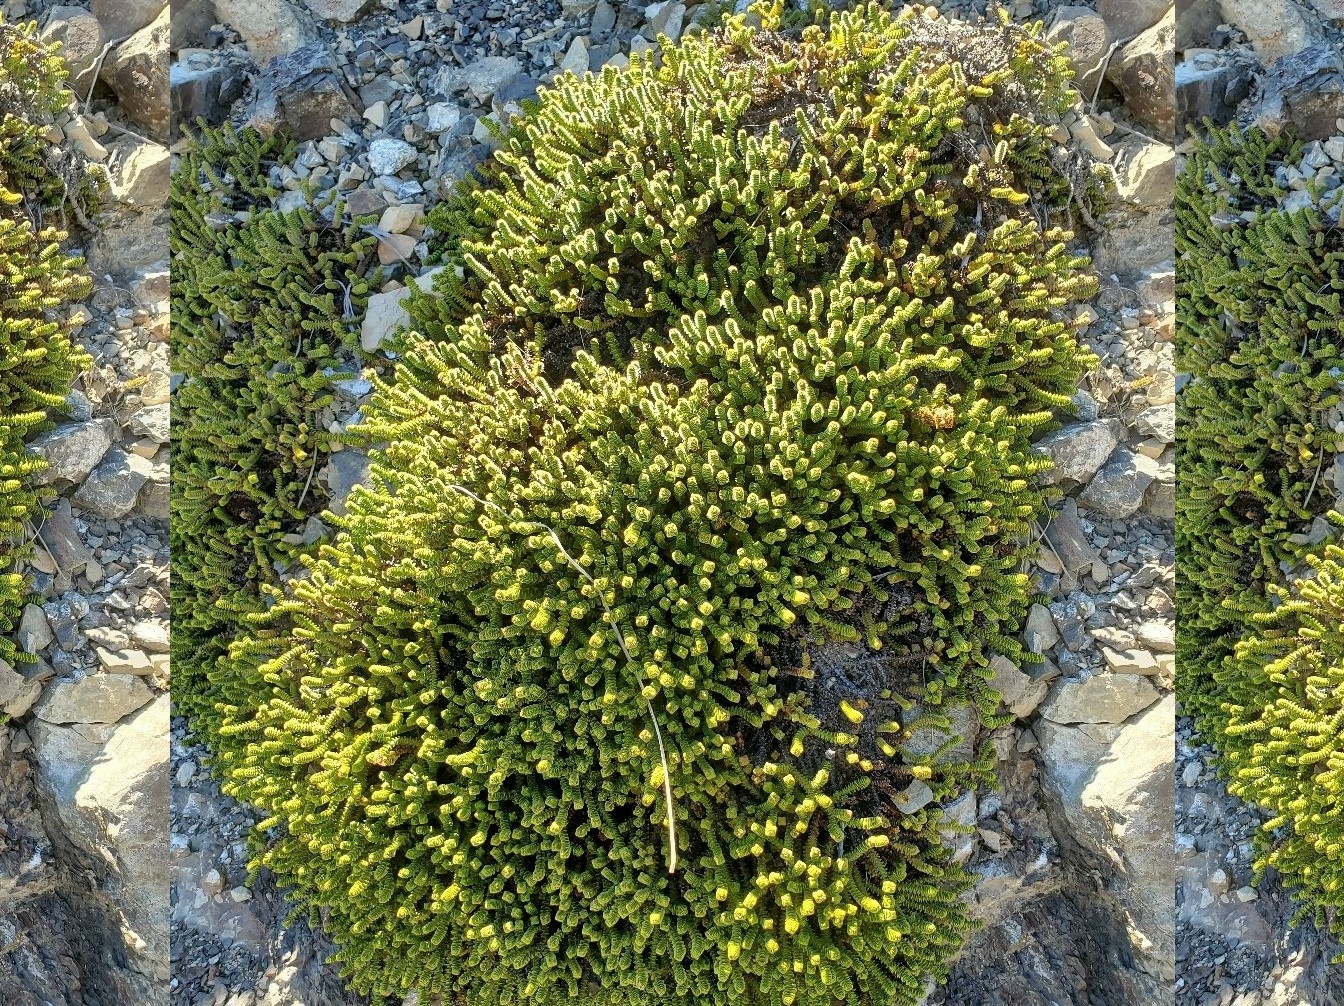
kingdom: Plantae
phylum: Tracheophyta
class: Magnoliopsida
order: Lamiales
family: Plantaginaceae
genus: Veronica
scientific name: Veronica epacridea
